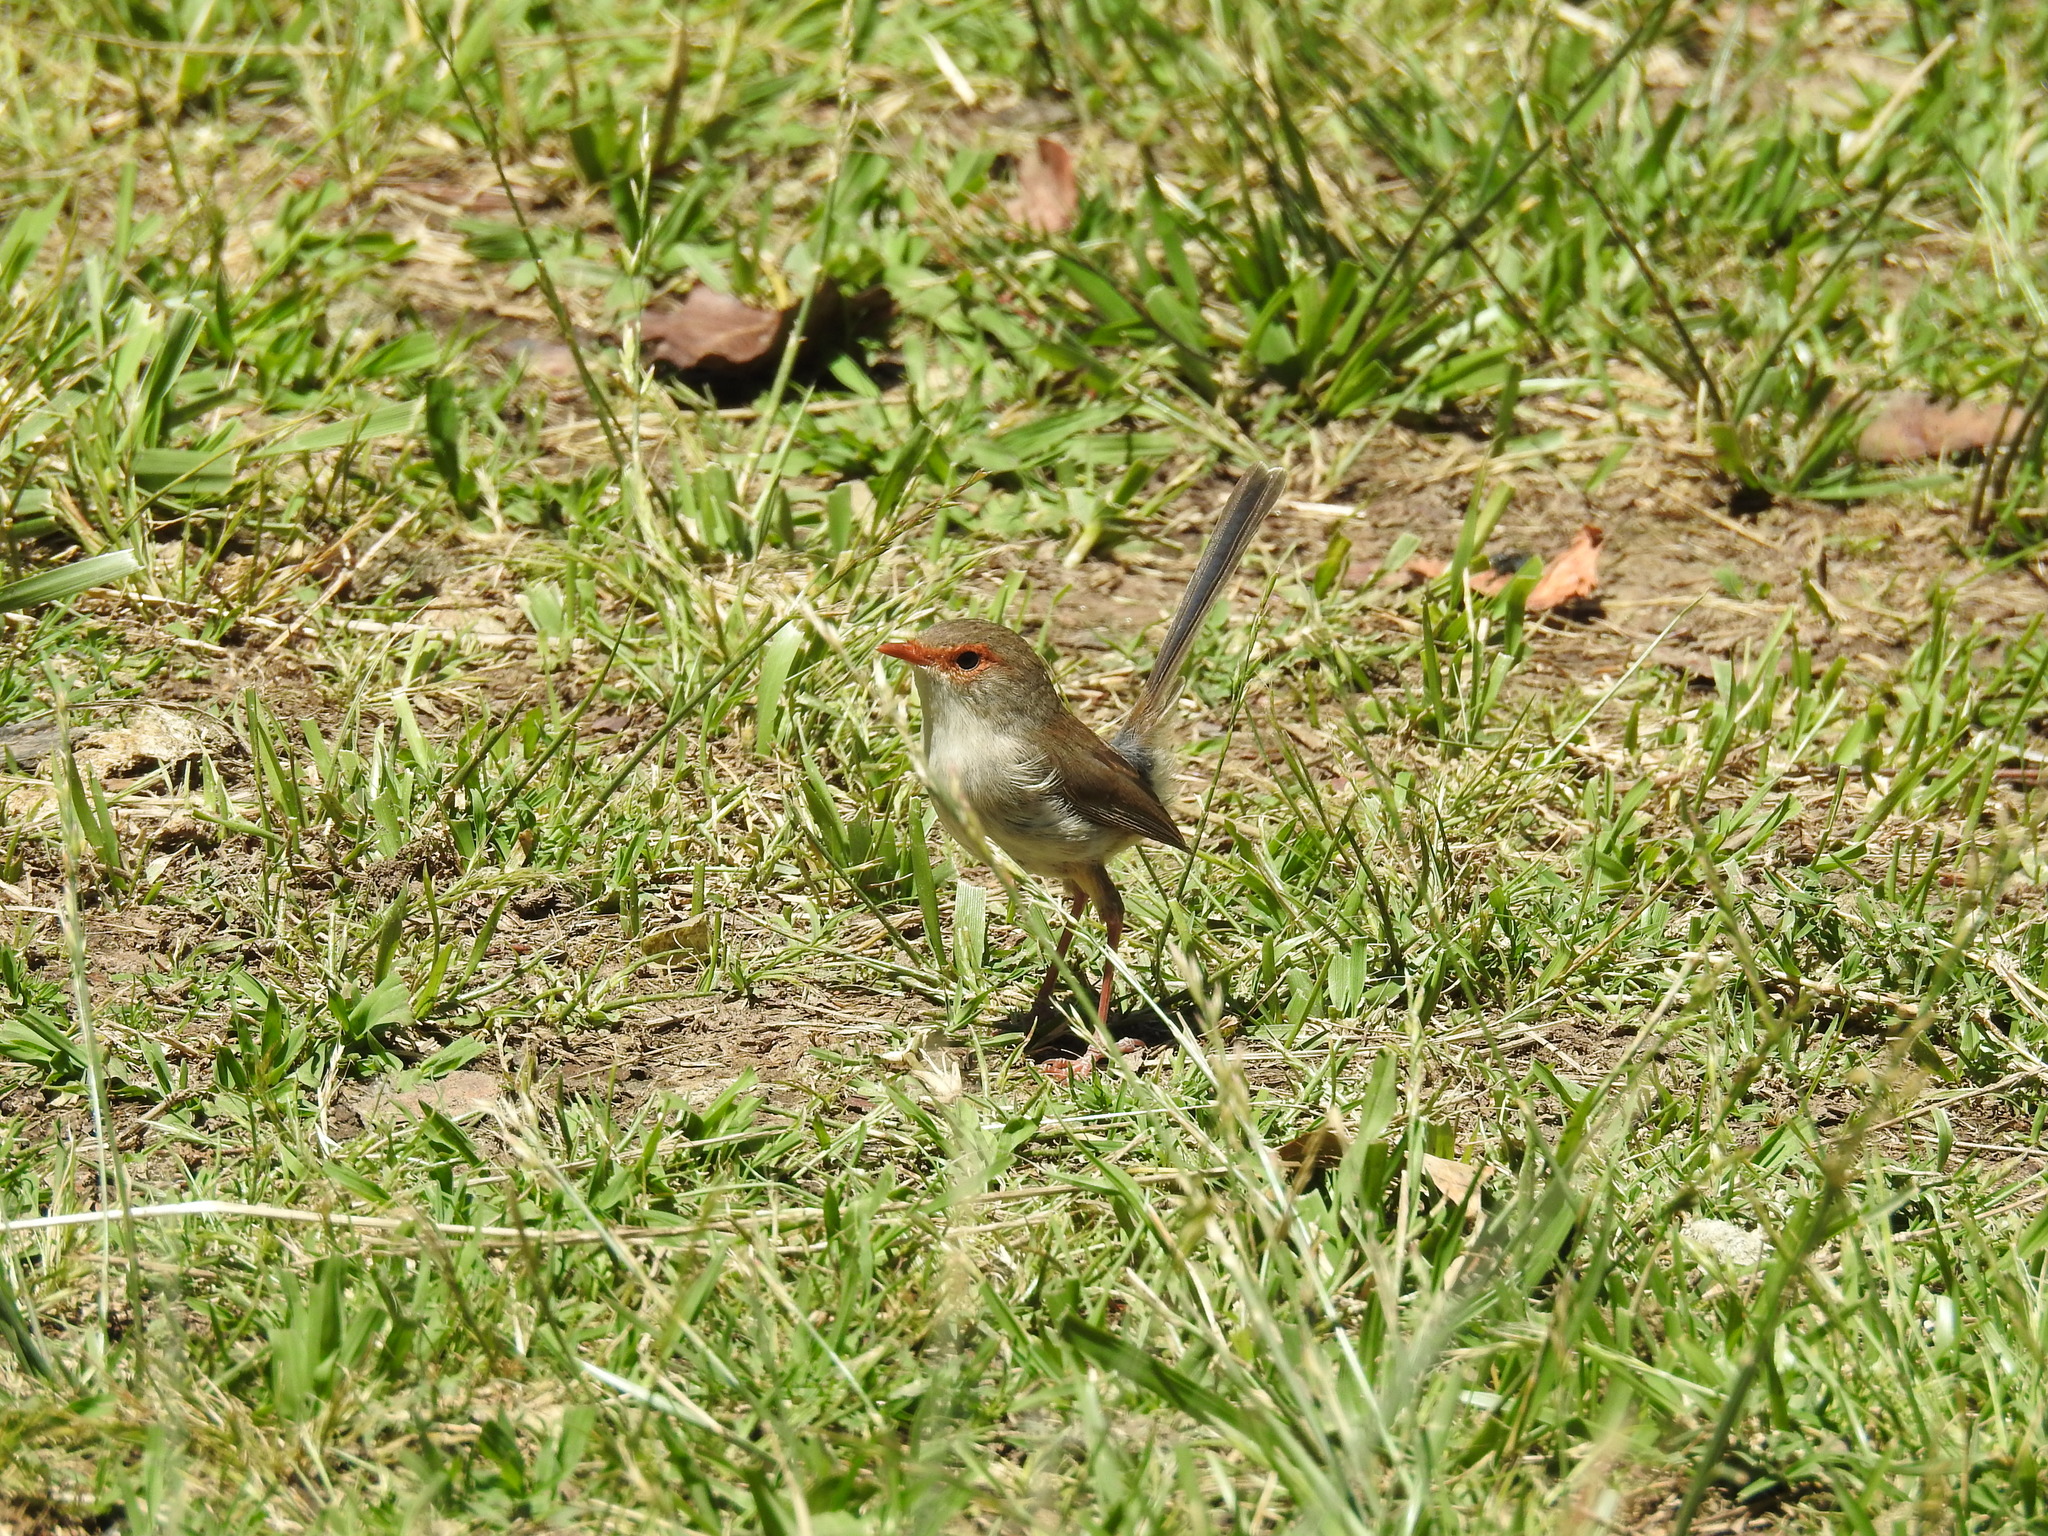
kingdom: Animalia
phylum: Chordata
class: Aves
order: Passeriformes
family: Maluridae
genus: Malurus
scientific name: Malurus cyaneus
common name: Superb fairywren
